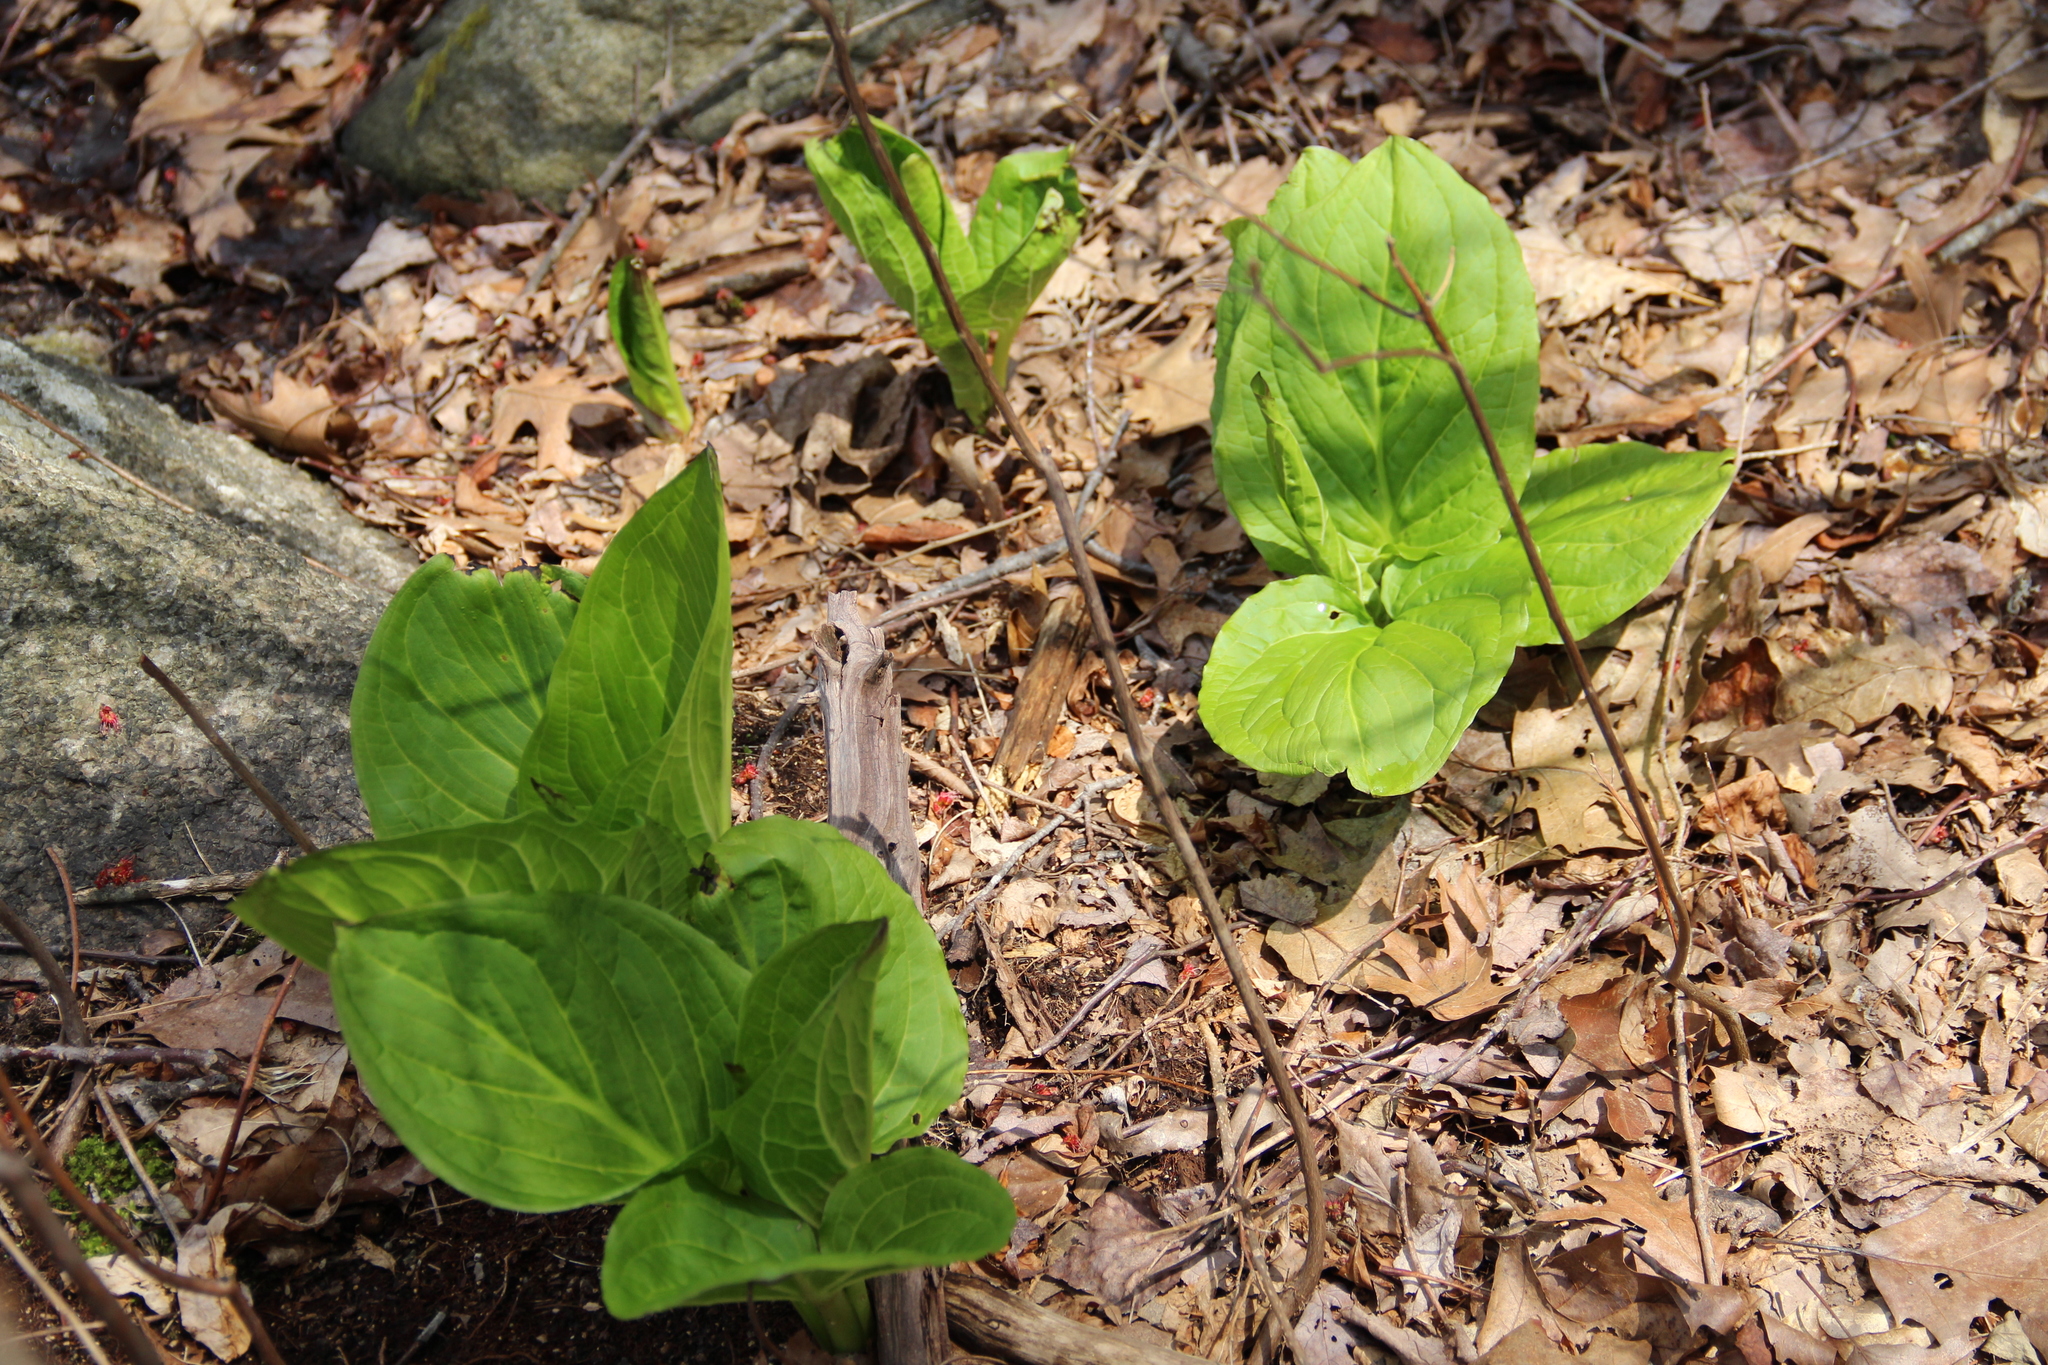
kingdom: Plantae
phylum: Tracheophyta
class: Liliopsida
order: Alismatales
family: Araceae
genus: Symplocarpus
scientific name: Symplocarpus foetidus
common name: Eastern skunk cabbage
